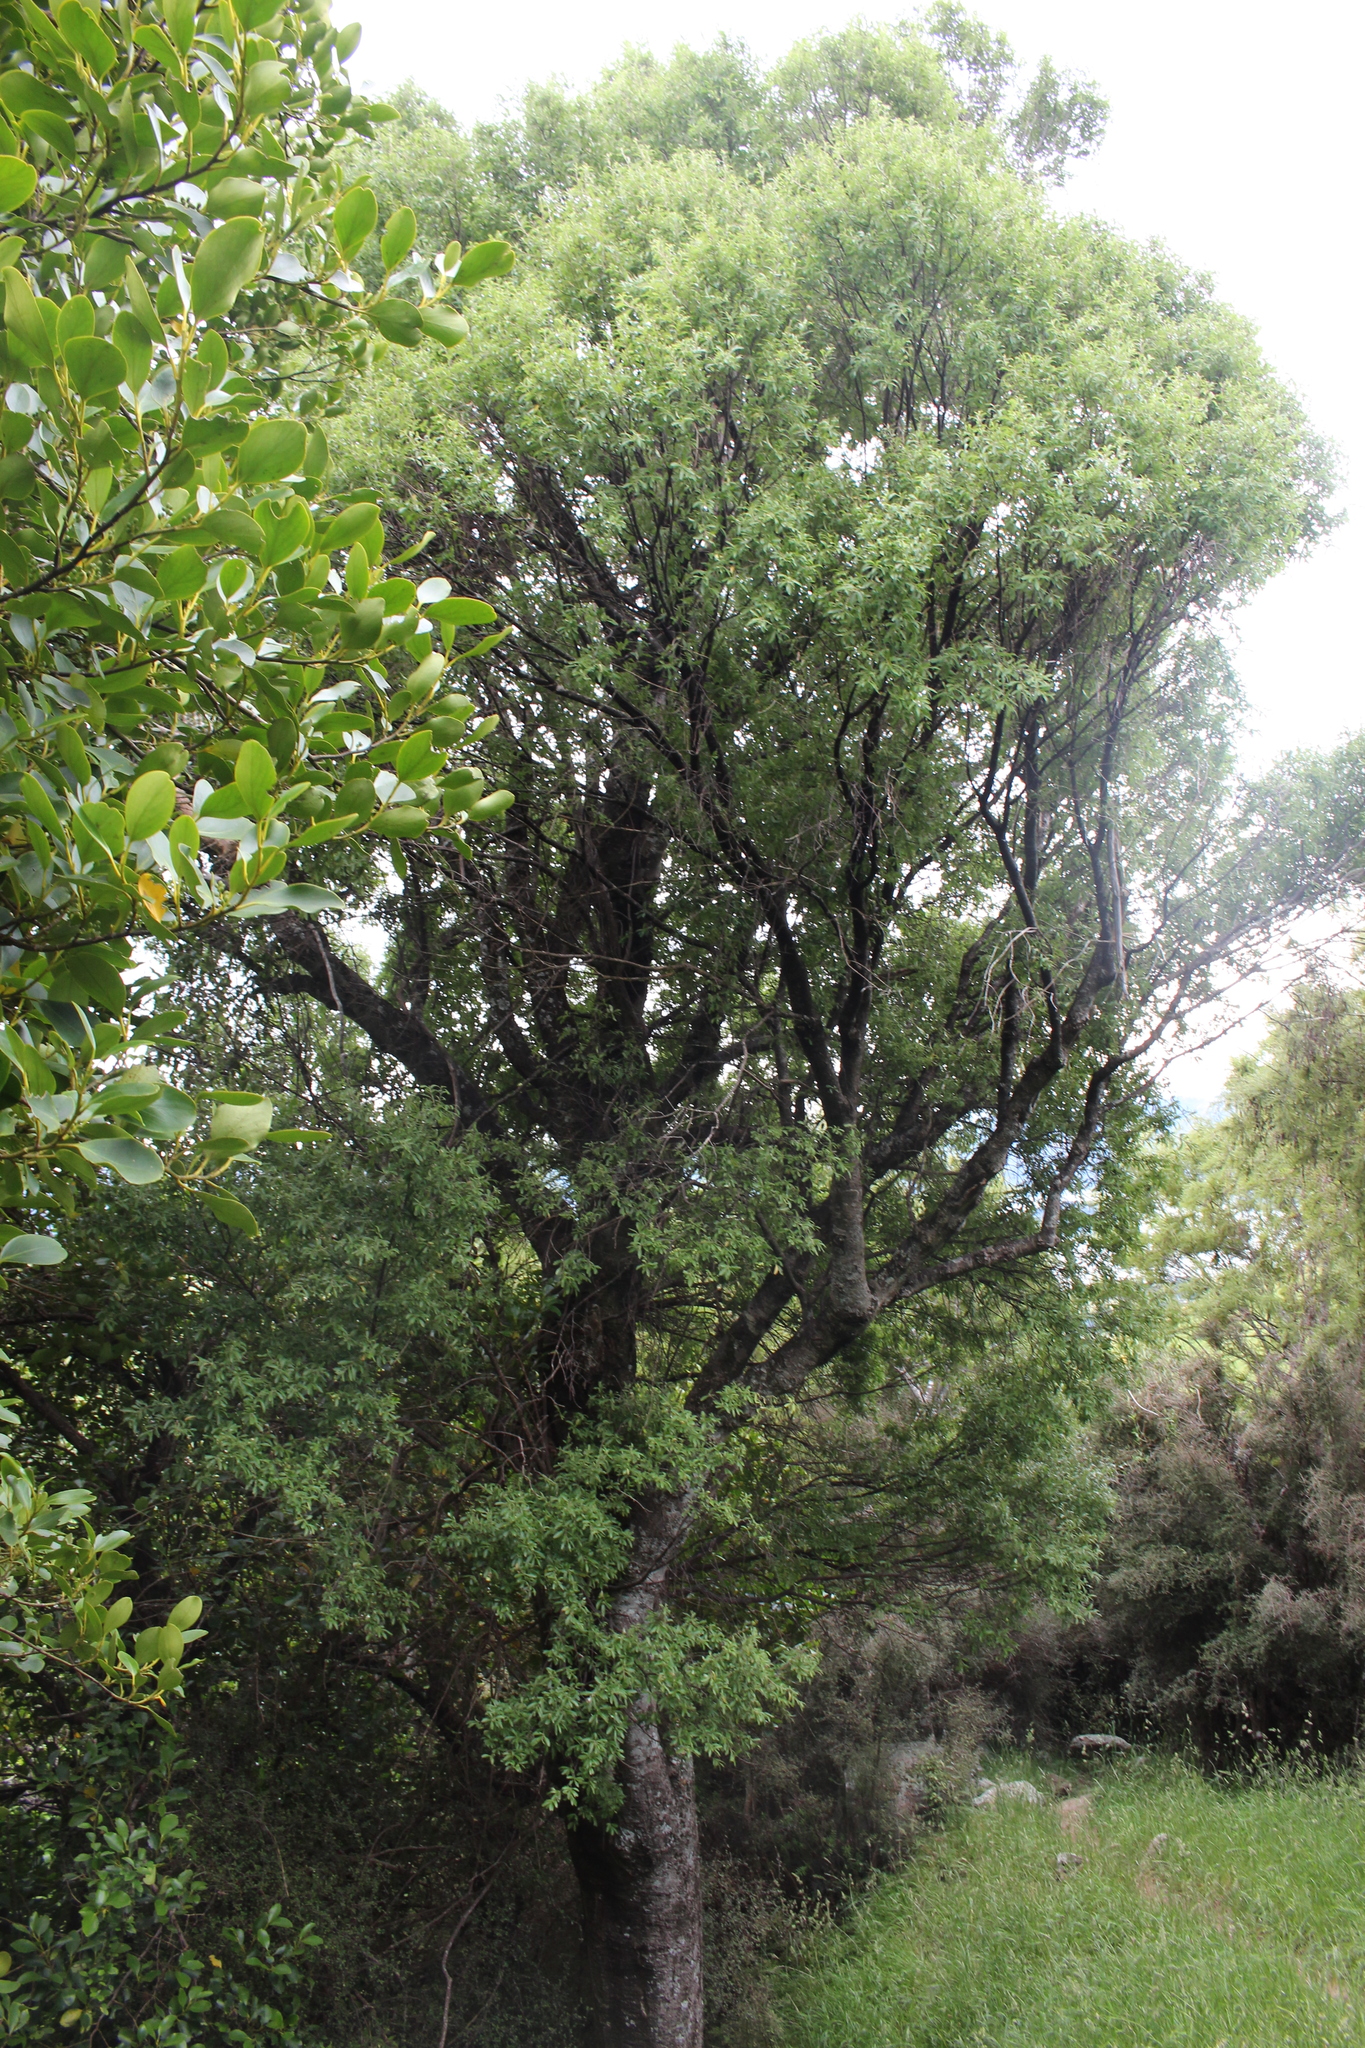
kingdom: Plantae
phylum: Tracheophyta
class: Magnoliopsida
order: Malvales
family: Malvaceae
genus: Hoheria
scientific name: Hoheria angustifolia
